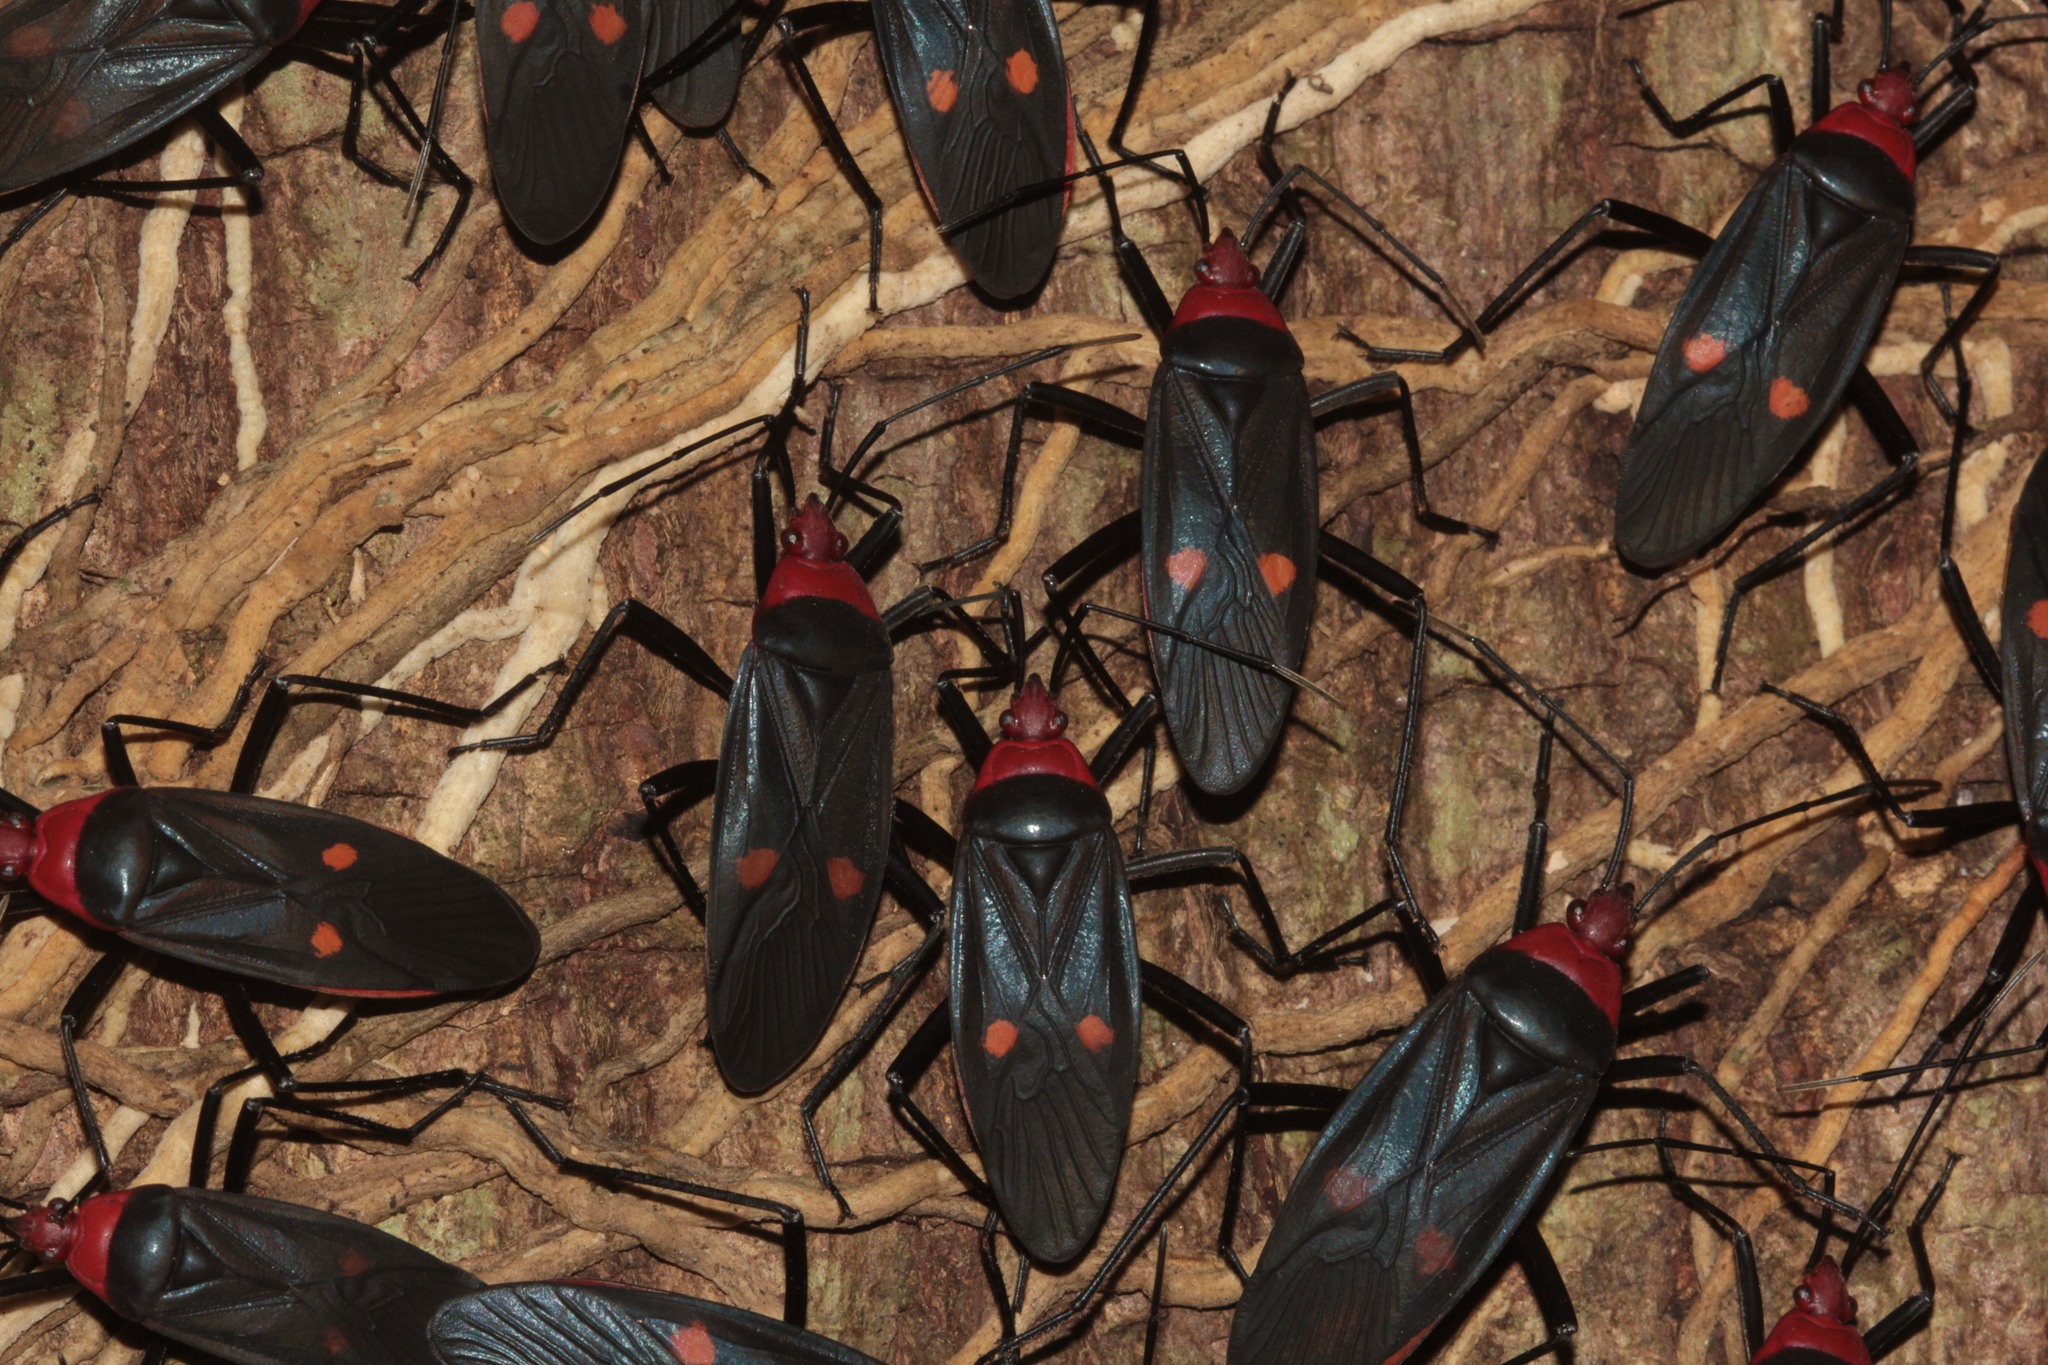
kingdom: Animalia
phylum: Arthropoda
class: Insecta
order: Hemiptera
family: Pyrrhocoridae
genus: Melamphaus
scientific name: Melamphaus faber
